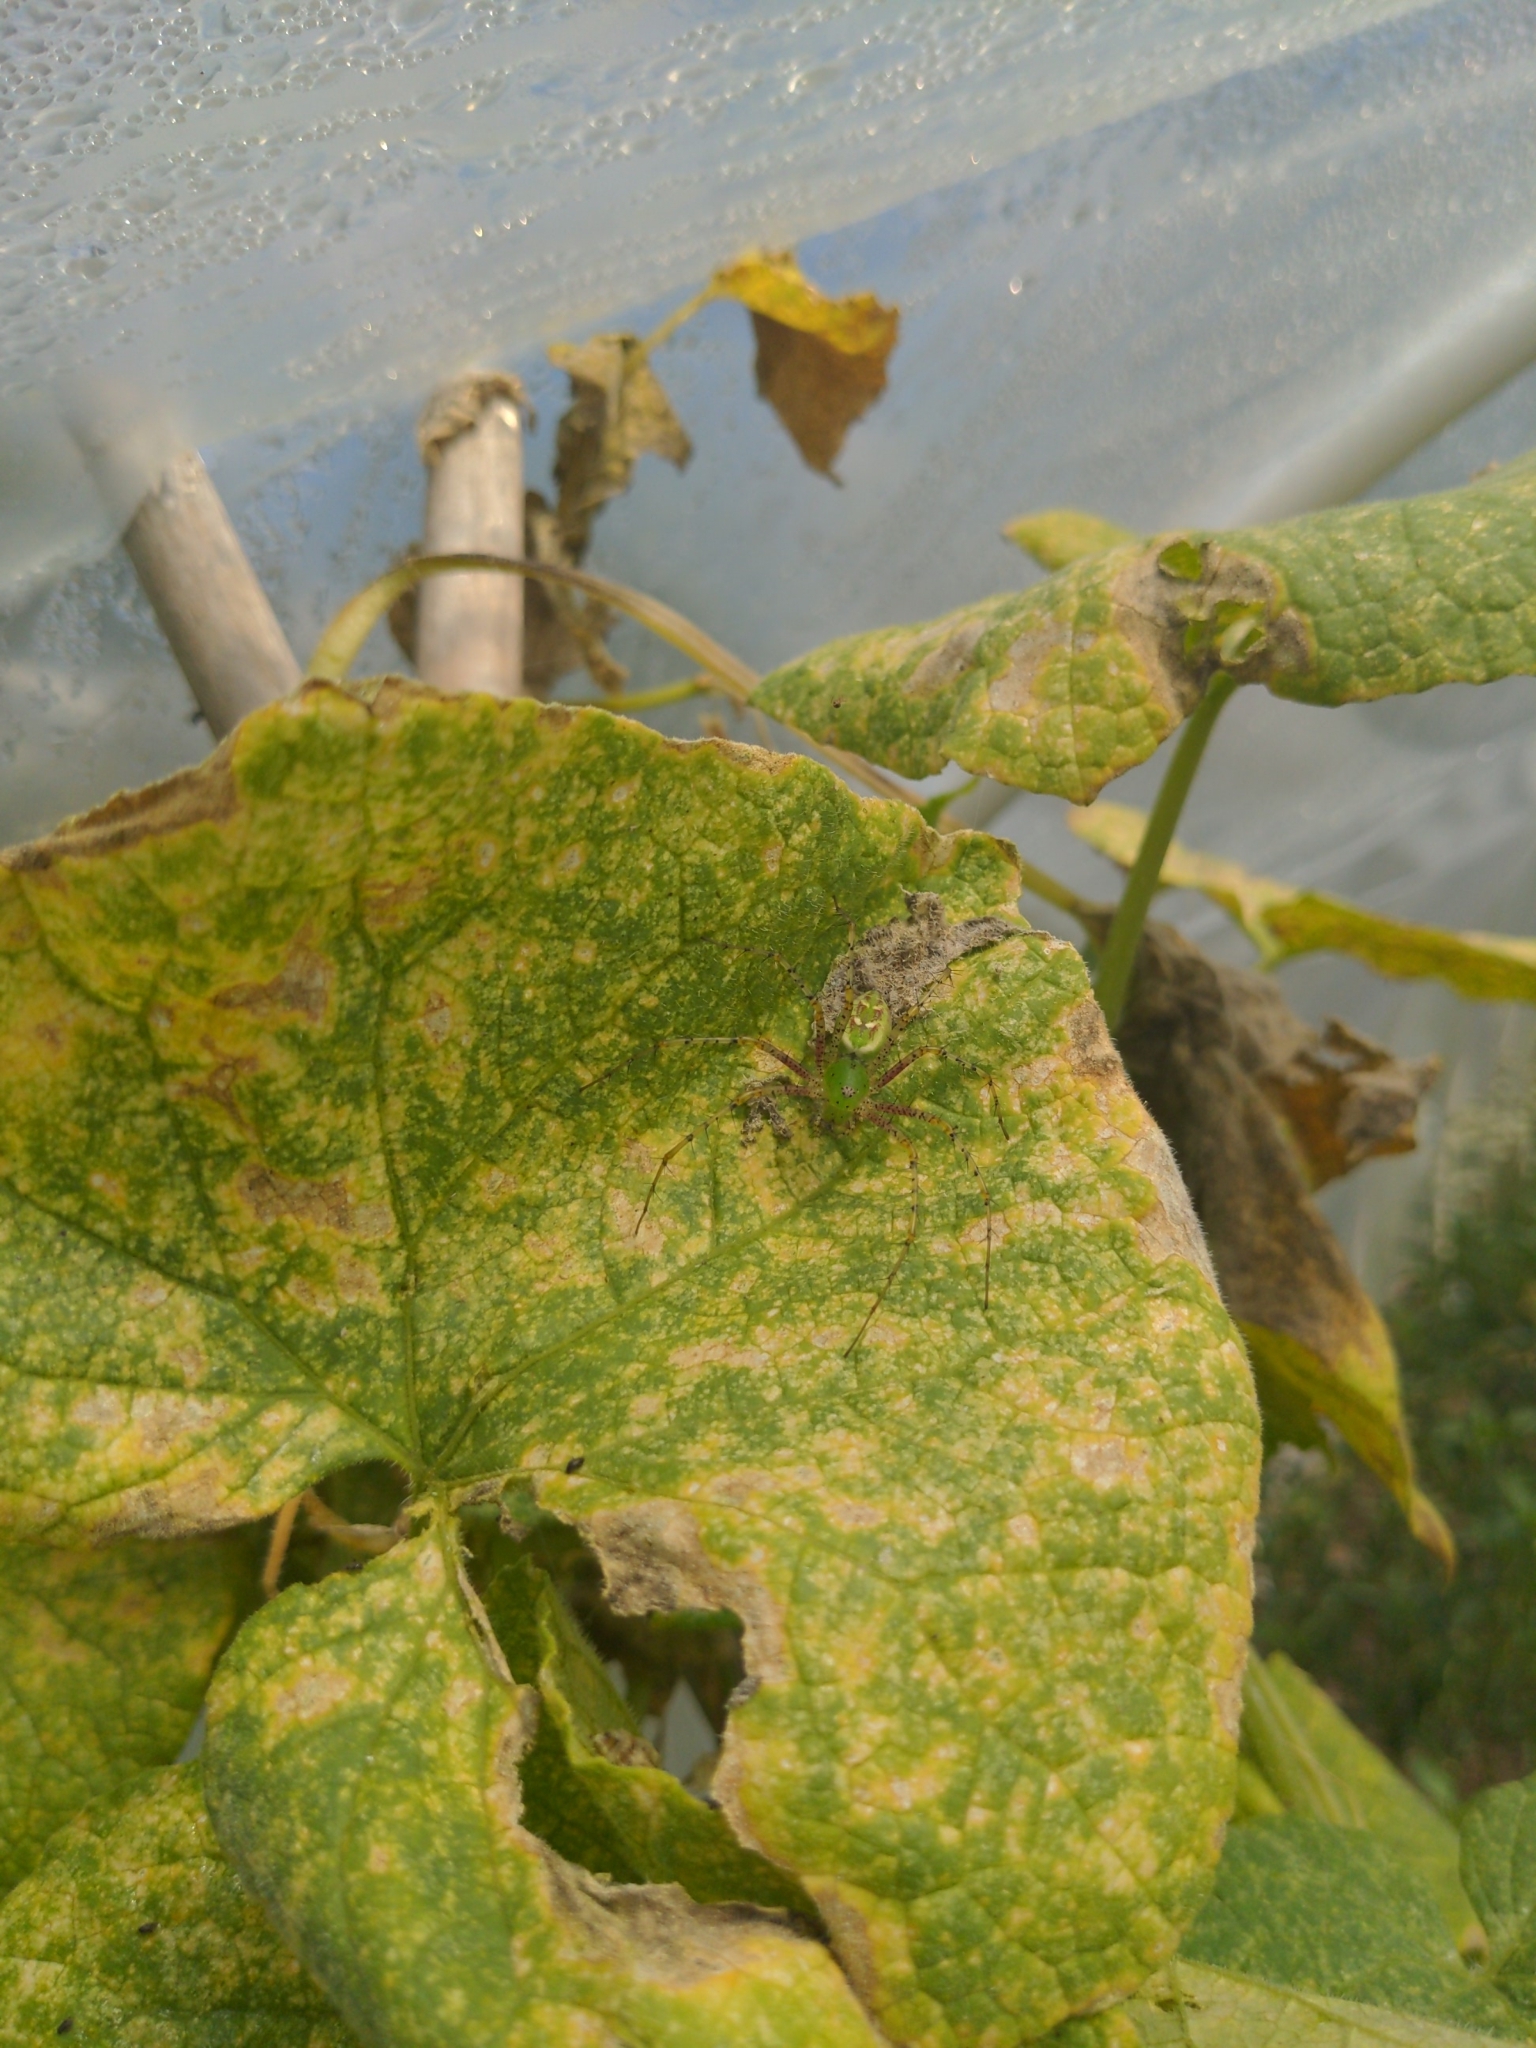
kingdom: Animalia
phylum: Arthropoda
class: Arachnida
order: Araneae
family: Oxyopidae
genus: Peucetia
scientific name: Peucetia viridans
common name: Lynx spiders
